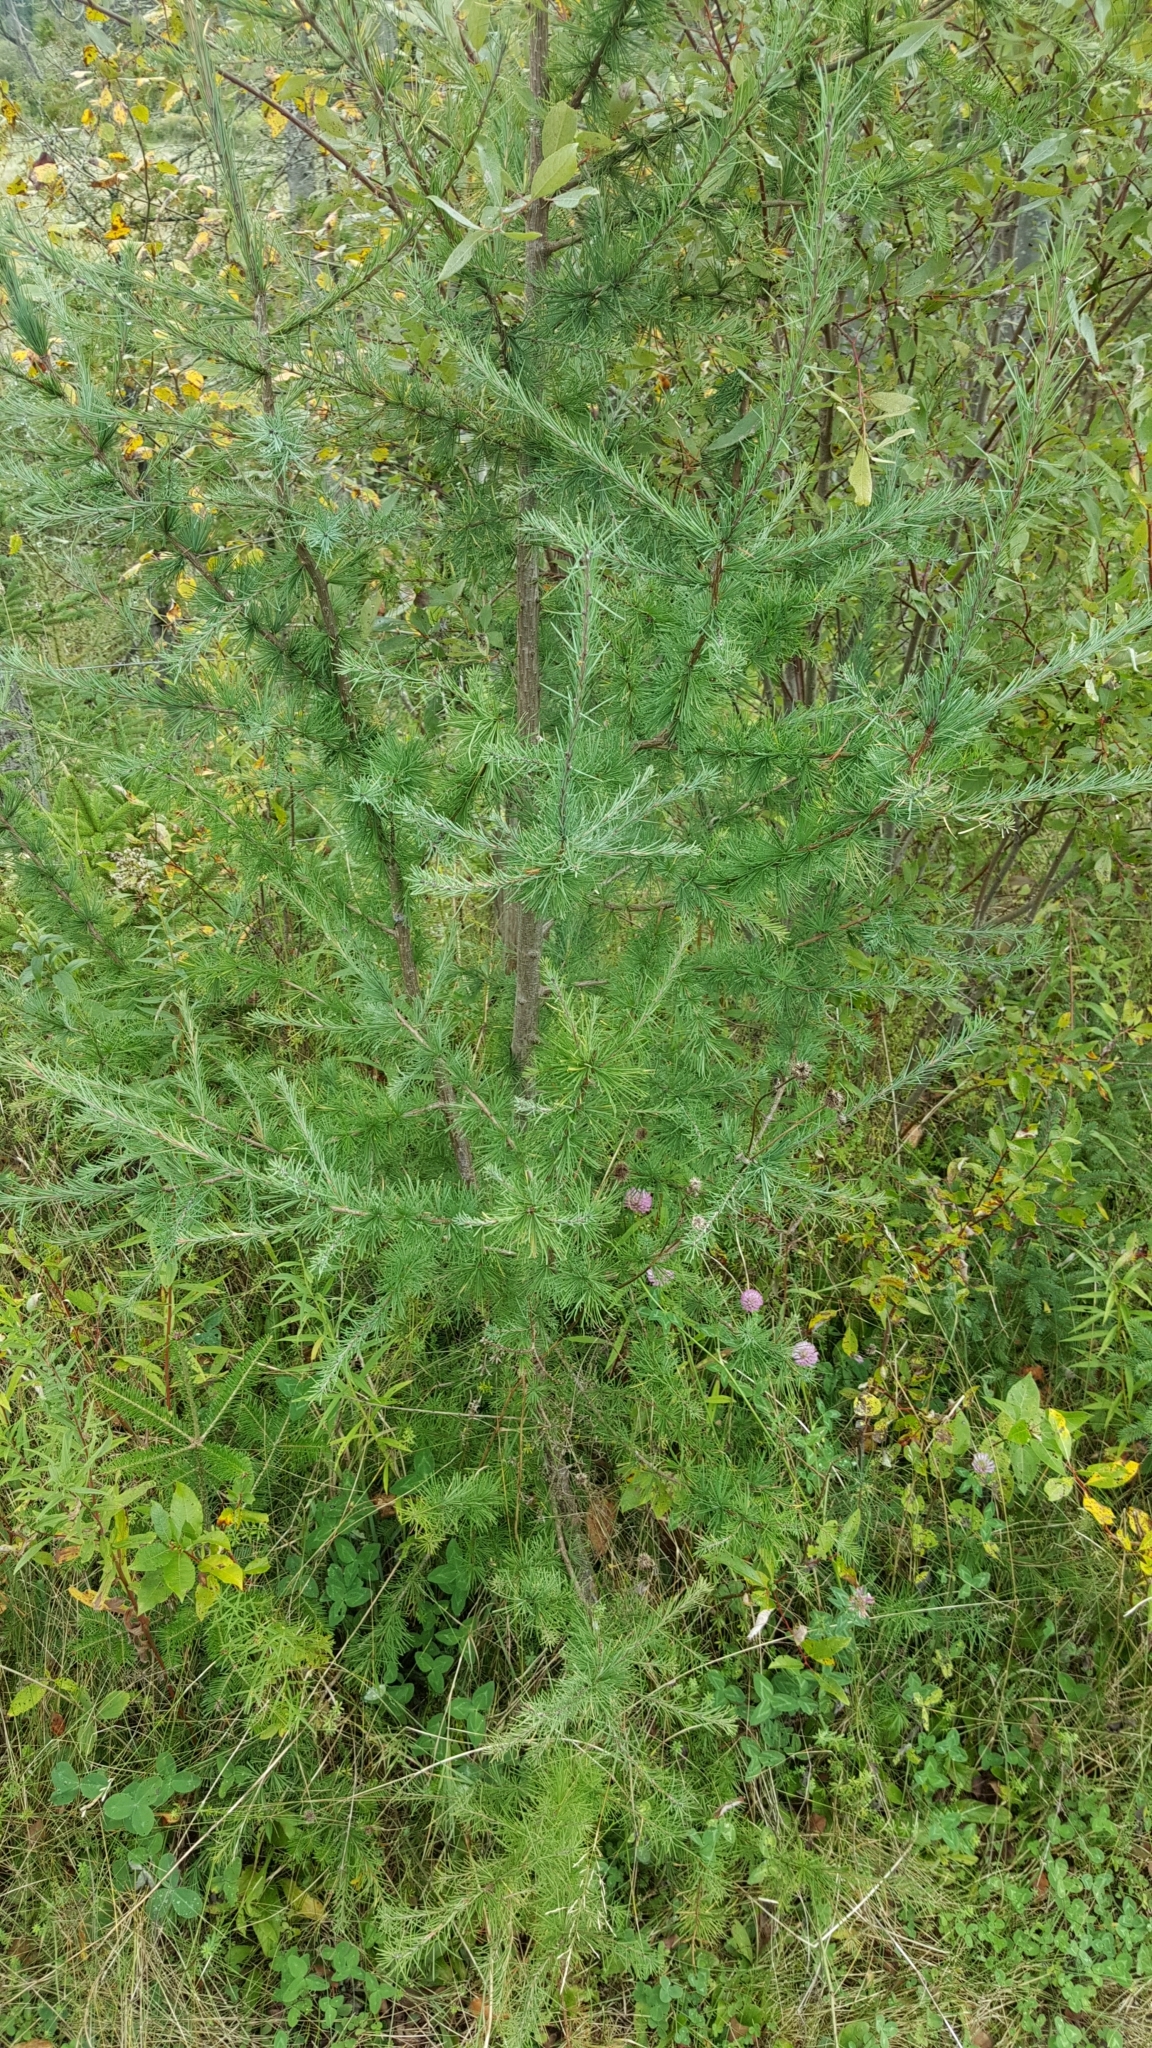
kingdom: Plantae
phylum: Tracheophyta
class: Pinopsida
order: Pinales
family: Pinaceae
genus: Larix
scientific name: Larix laricina
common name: American larch
